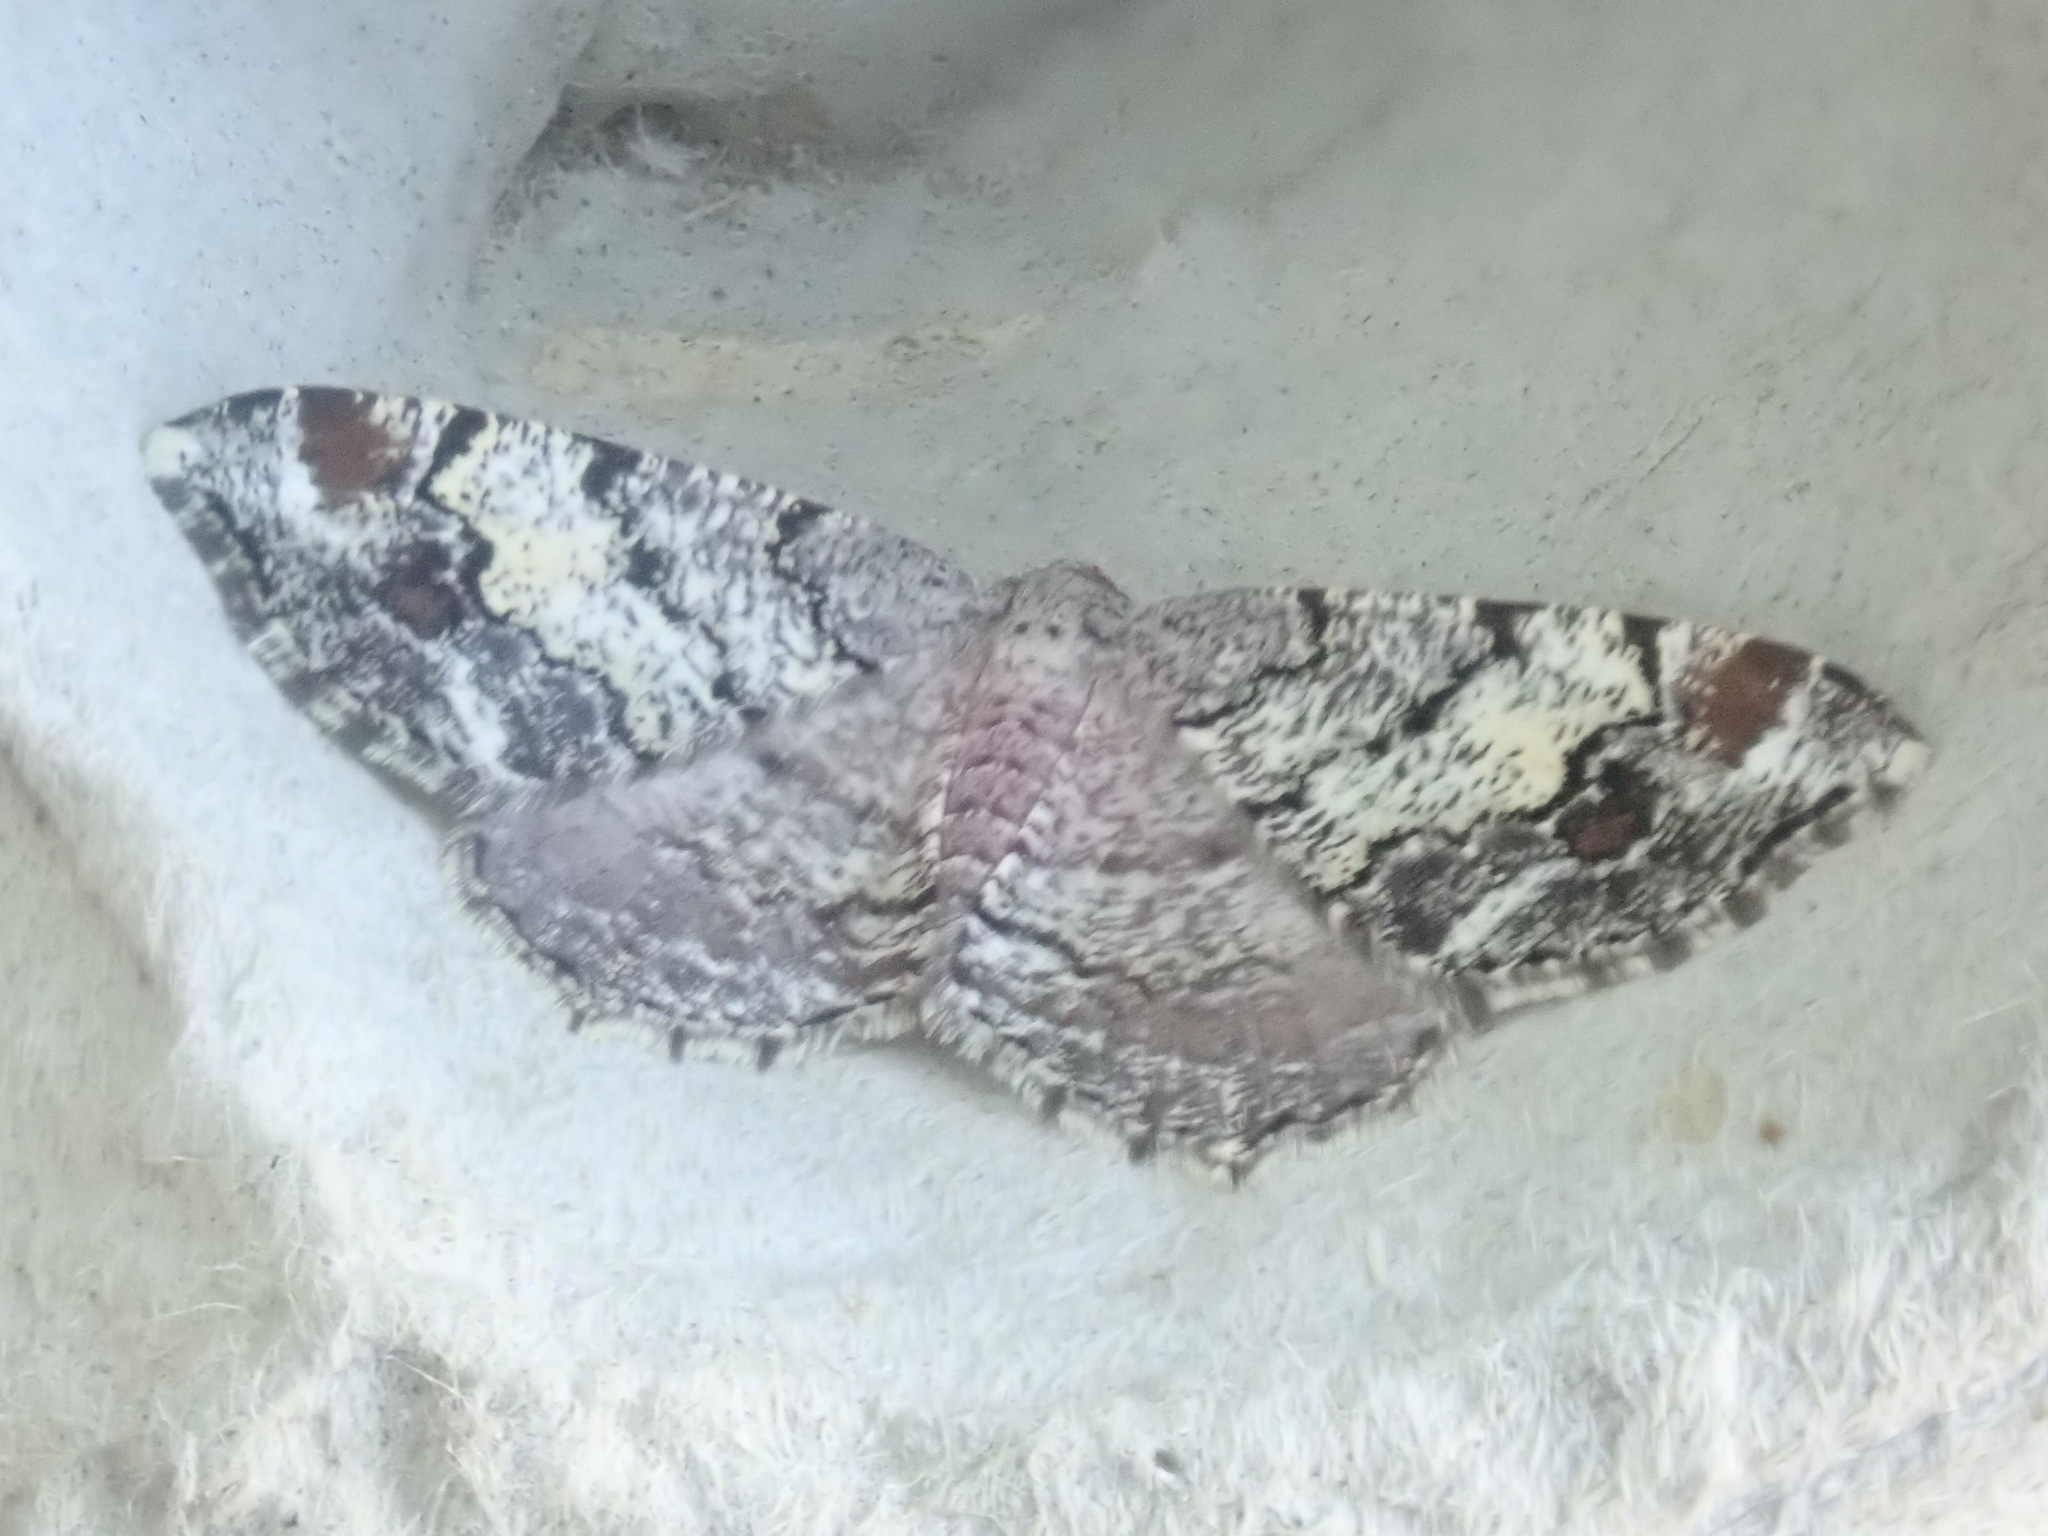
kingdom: Animalia
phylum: Arthropoda
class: Insecta
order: Lepidoptera
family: Geometridae
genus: Macaria
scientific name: Macaria granitata
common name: Granite moth
